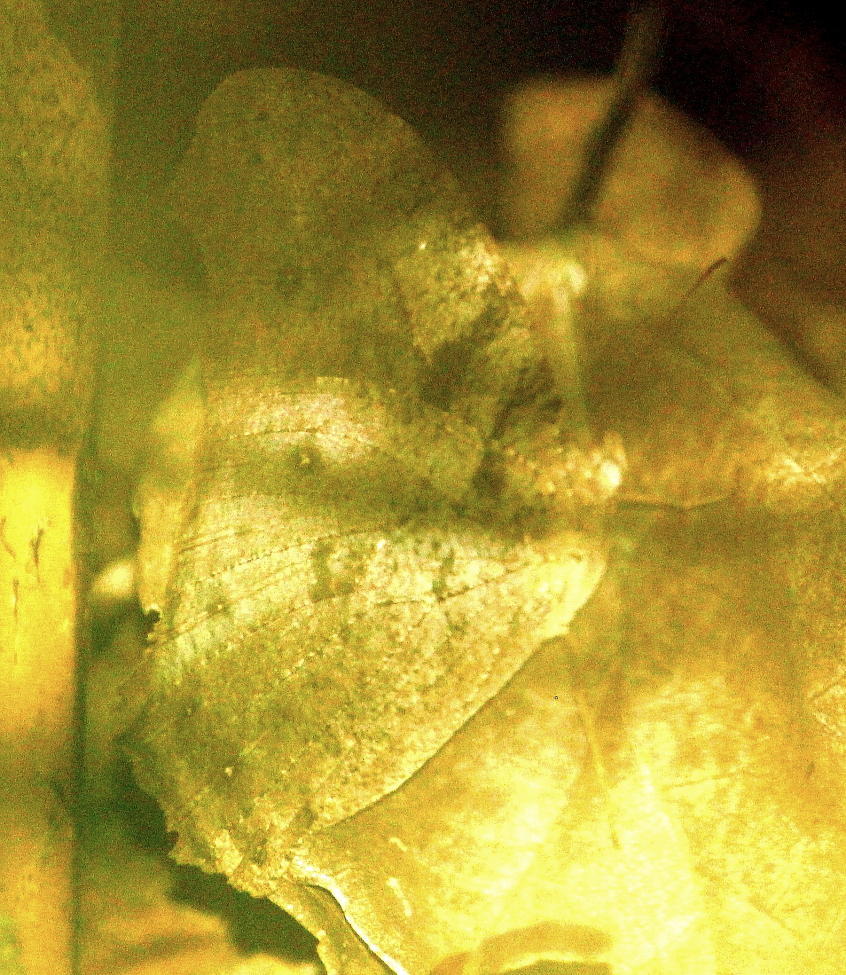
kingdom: Animalia
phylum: Arthropoda
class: Insecta
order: Lepidoptera
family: Nymphalidae
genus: Melanitis
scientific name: Melanitis leda
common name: Twilight brown
